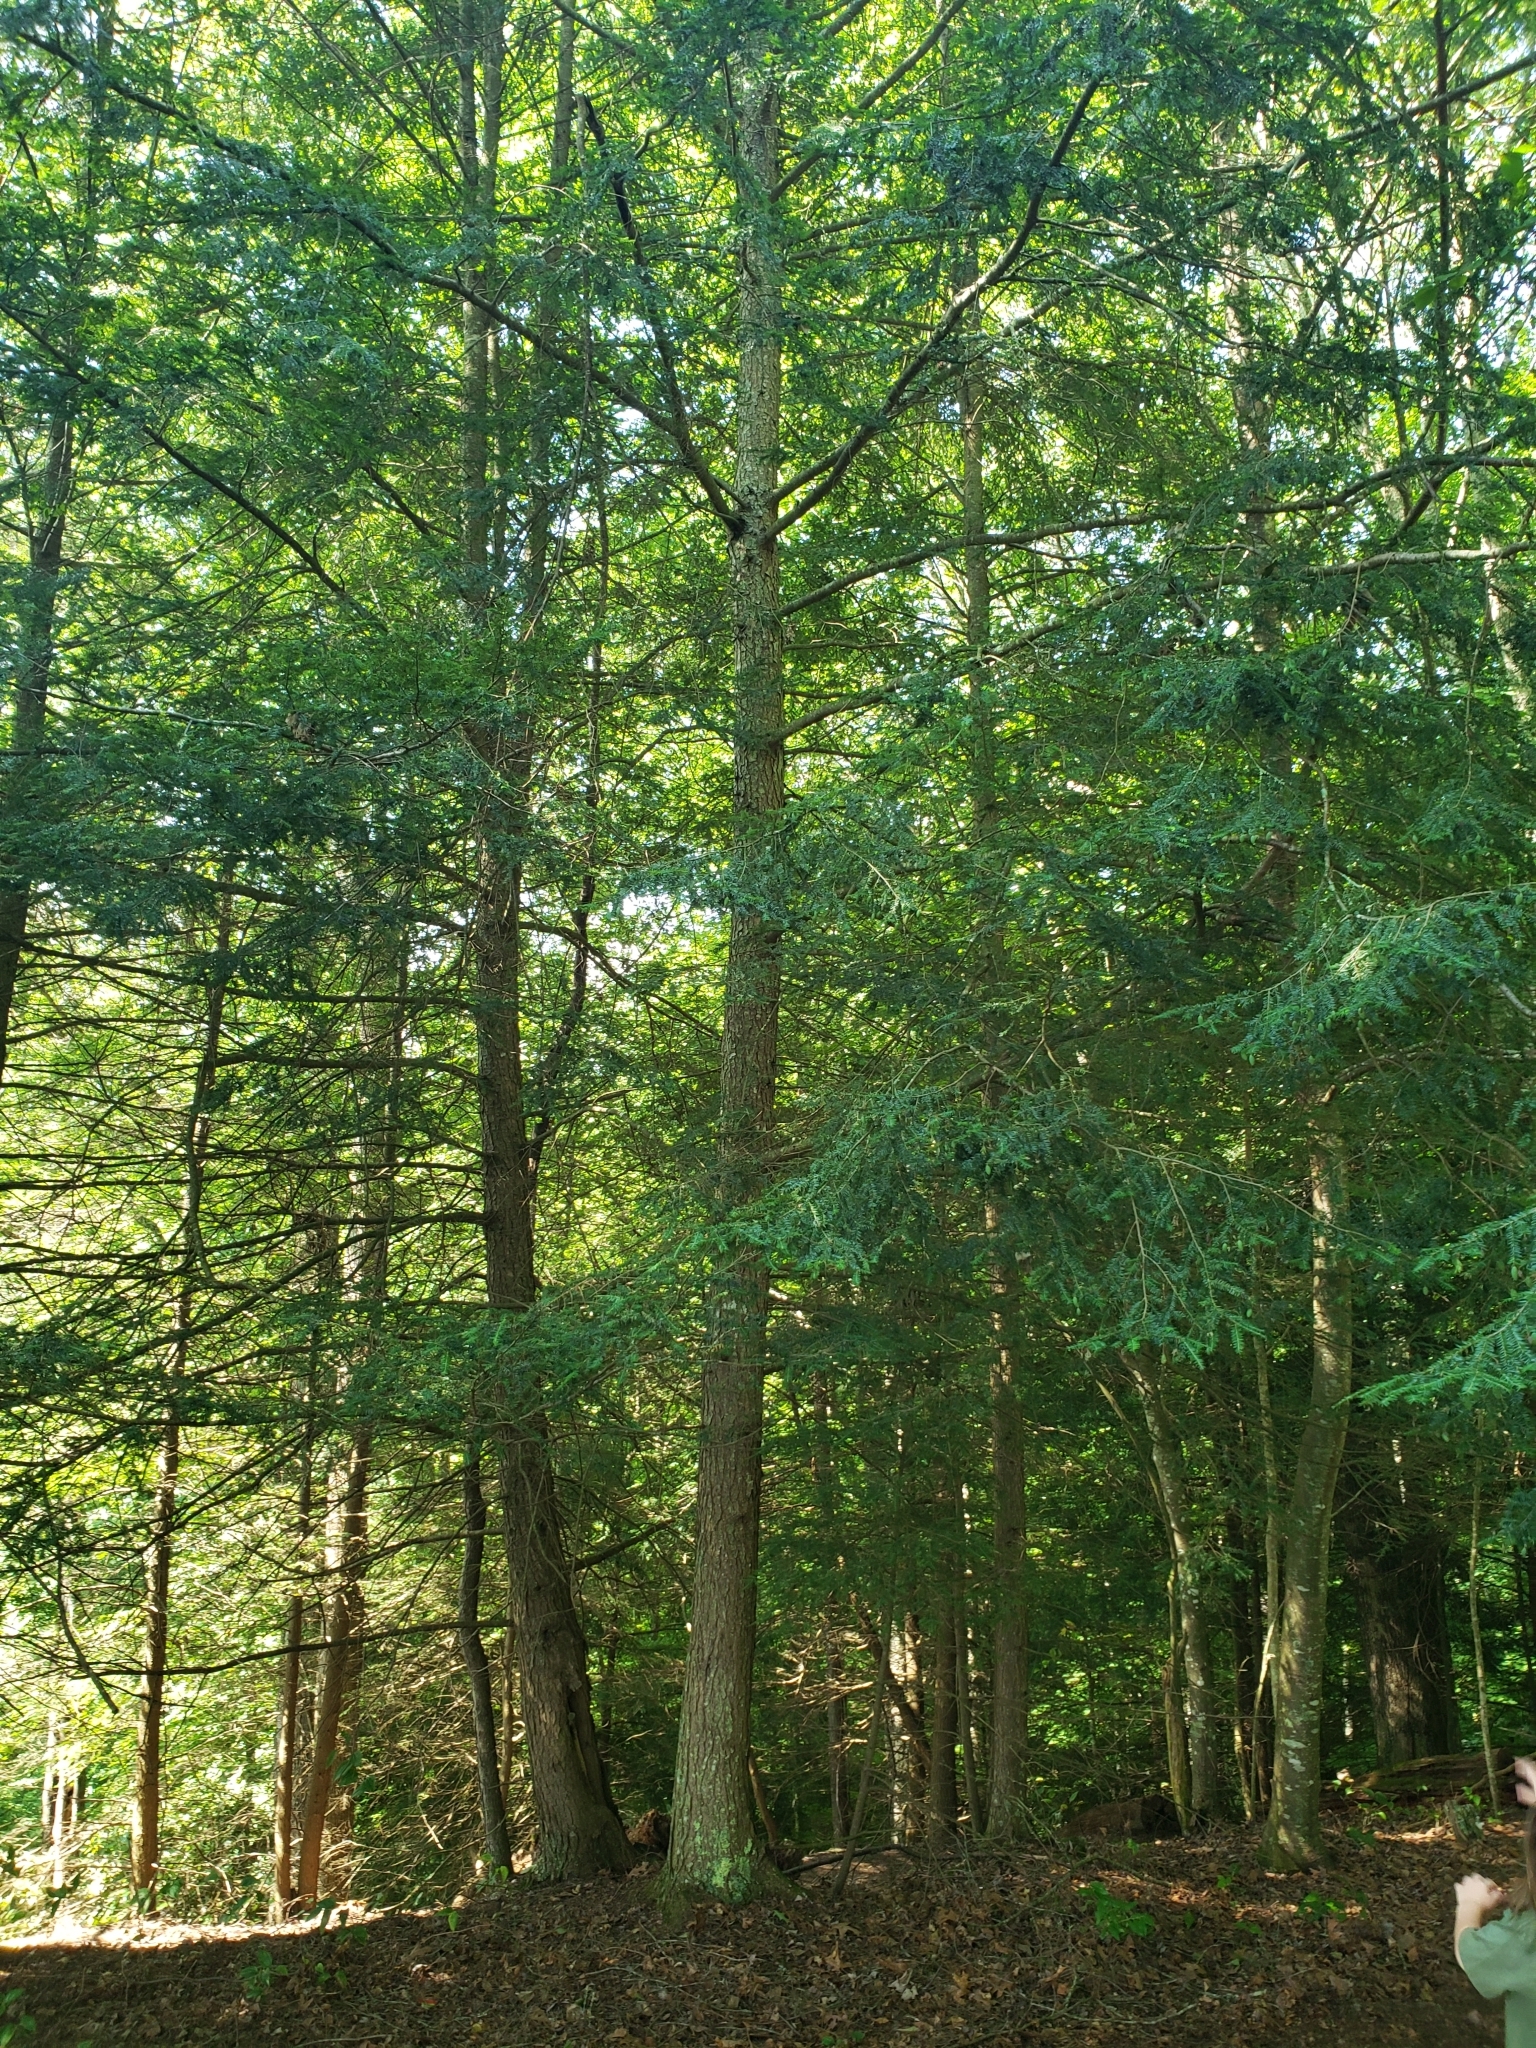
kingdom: Plantae
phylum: Tracheophyta
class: Pinopsida
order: Pinales
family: Pinaceae
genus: Tsuga
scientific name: Tsuga canadensis
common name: Eastern hemlock
